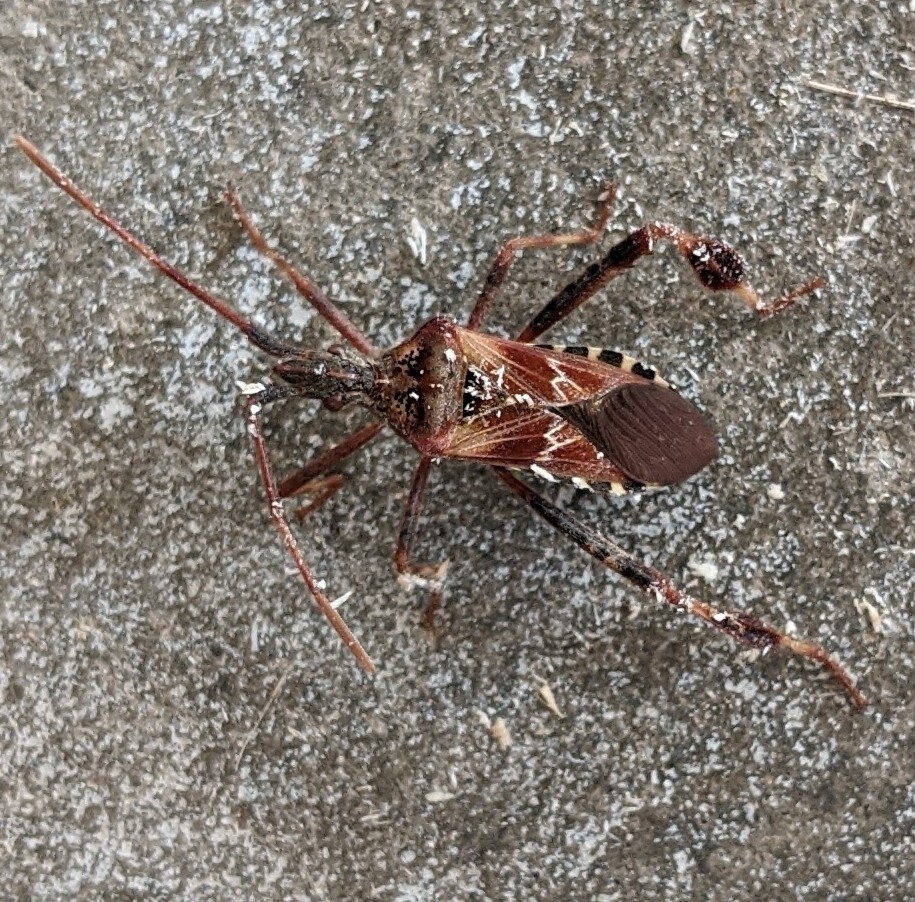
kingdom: Animalia
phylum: Arthropoda
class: Insecta
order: Hemiptera
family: Coreidae
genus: Leptoglossus
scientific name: Leptoglossus occidentalis
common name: Western conifer-seed bug
